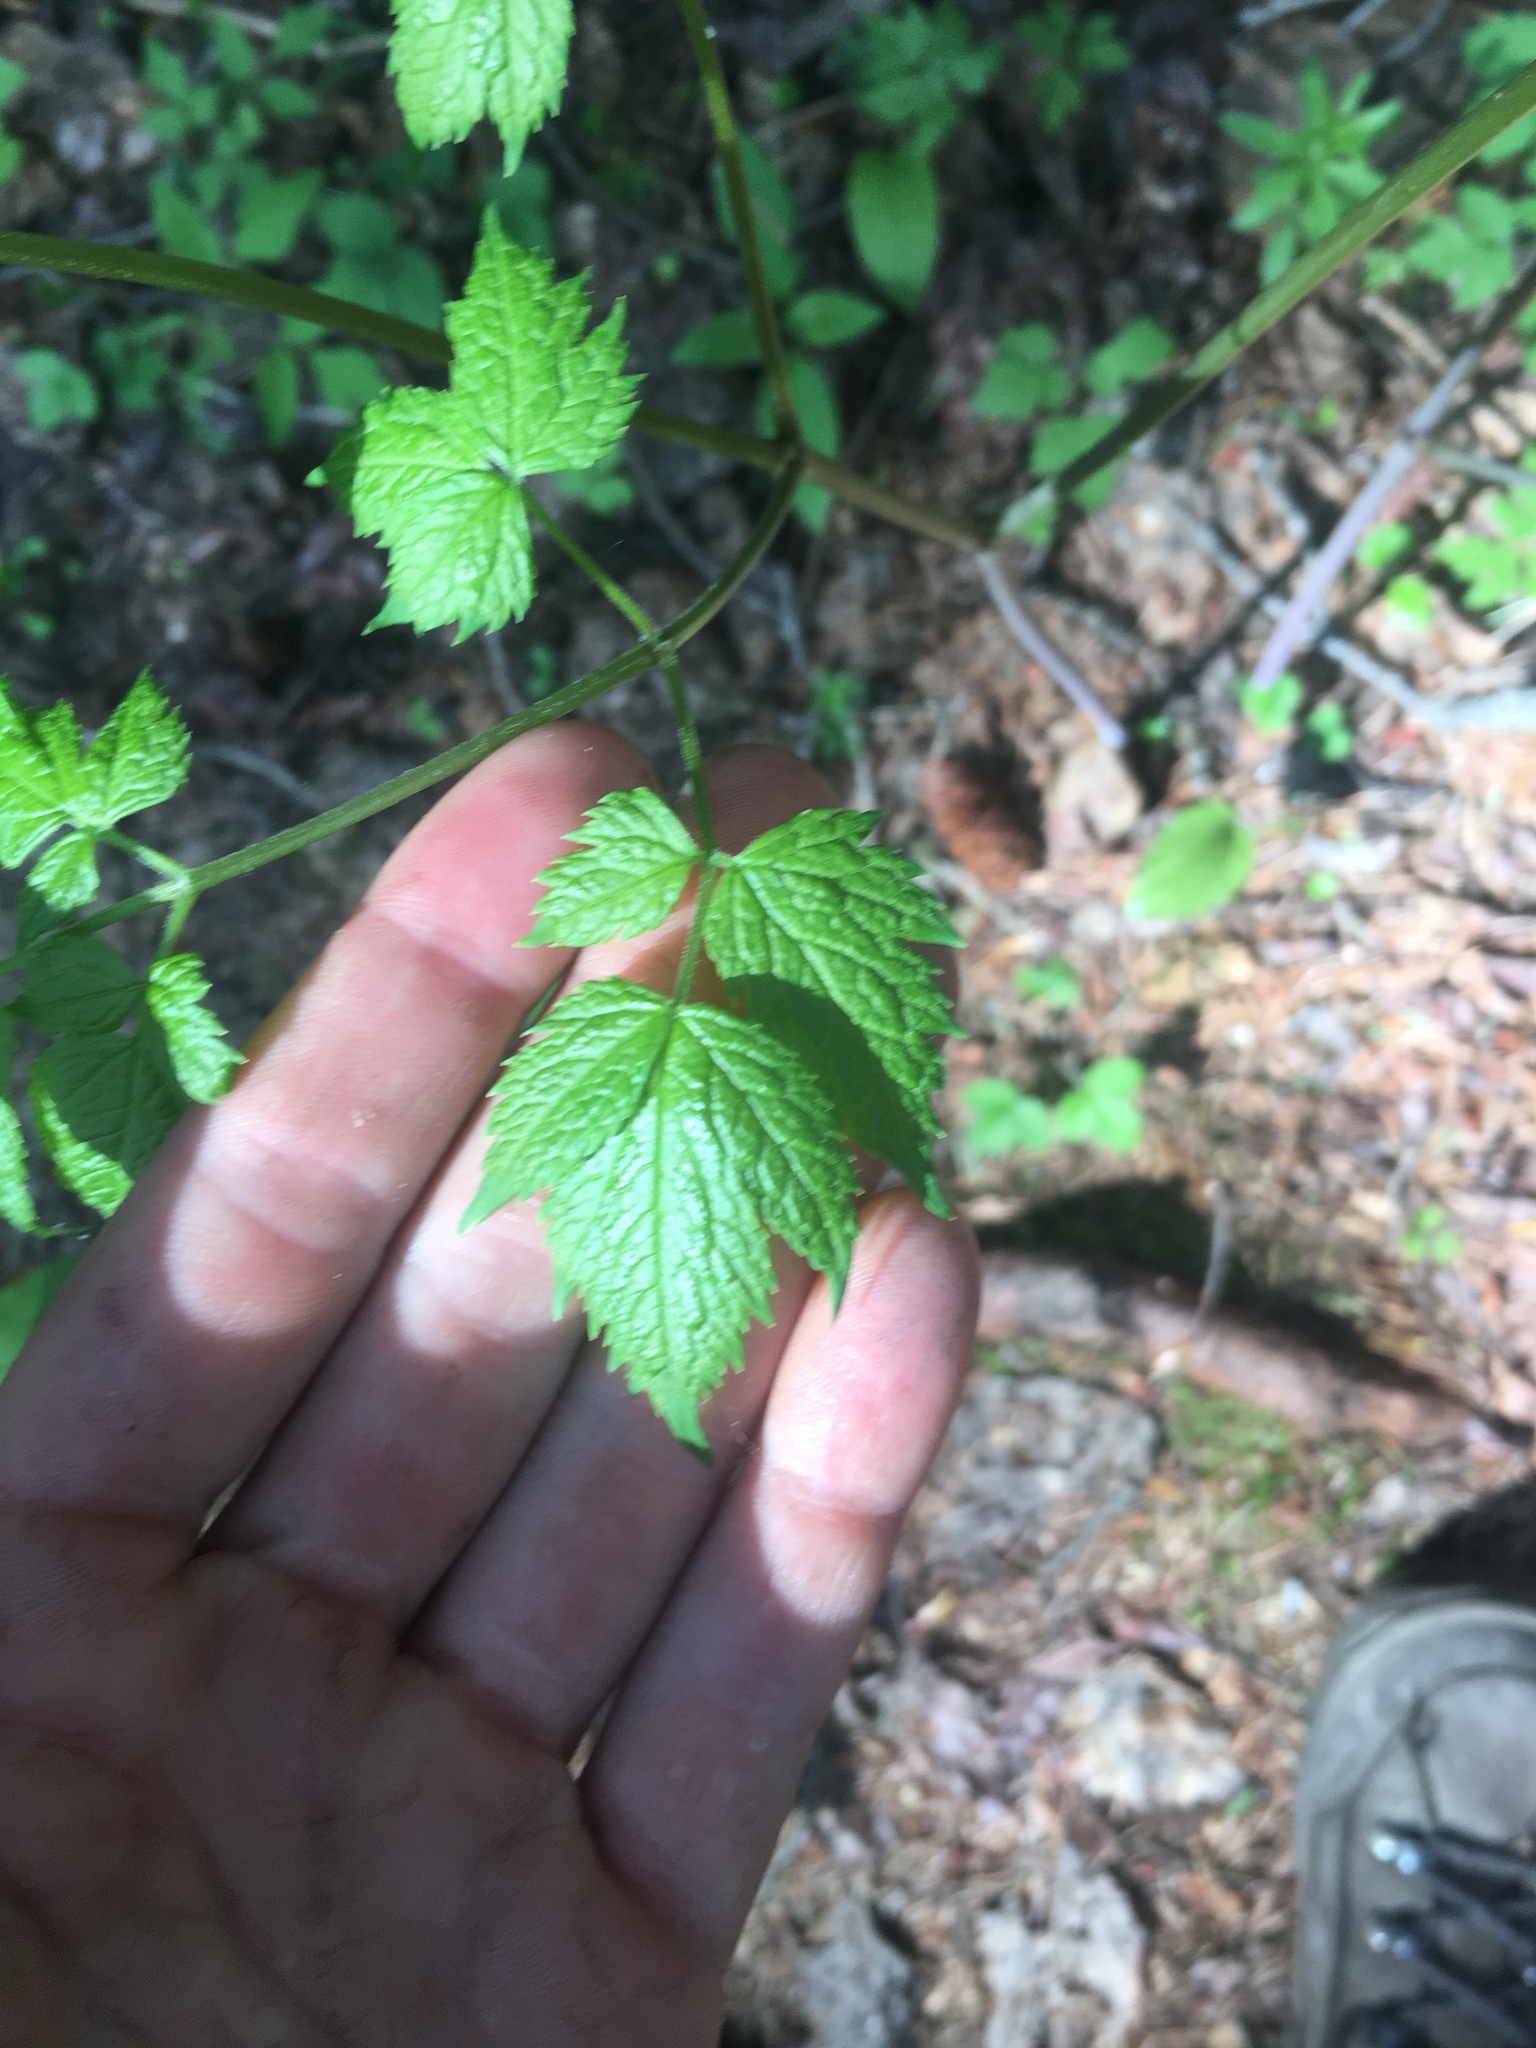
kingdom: Plantae
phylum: Tracheophyta
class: Magnoliopsida
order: Ranunculales
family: Ranunculaceae
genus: Actaea
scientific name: Actaea rubra
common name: Red baneberry
